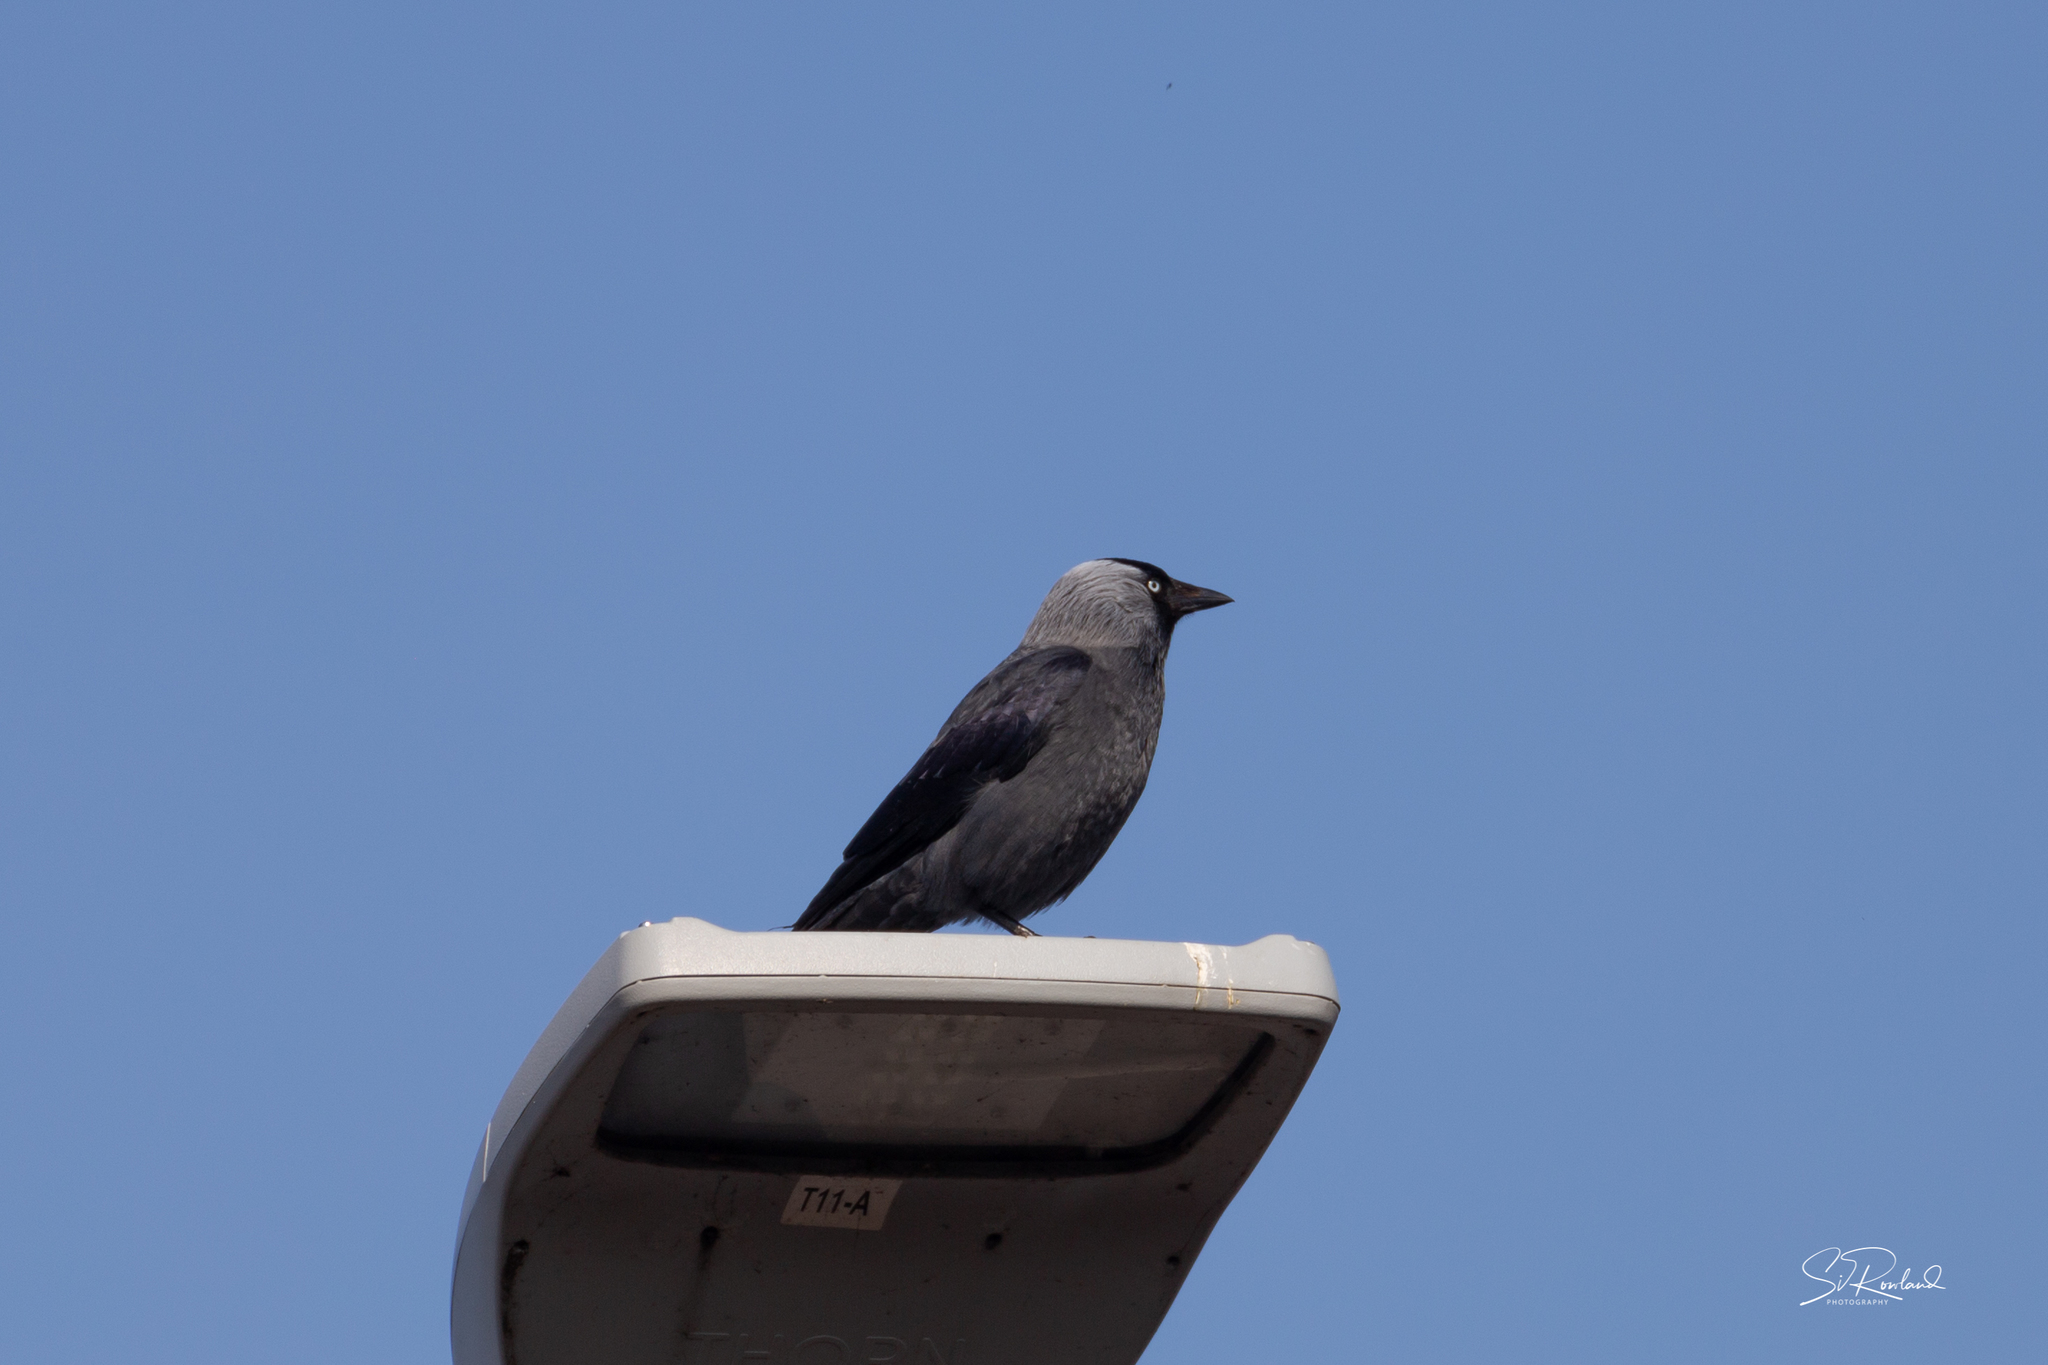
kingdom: Animalia
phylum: Chordata
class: Aves
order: Passeriformes
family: Corvidae
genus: Coloeus
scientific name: Coloeus monedula
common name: Western jackdaw
